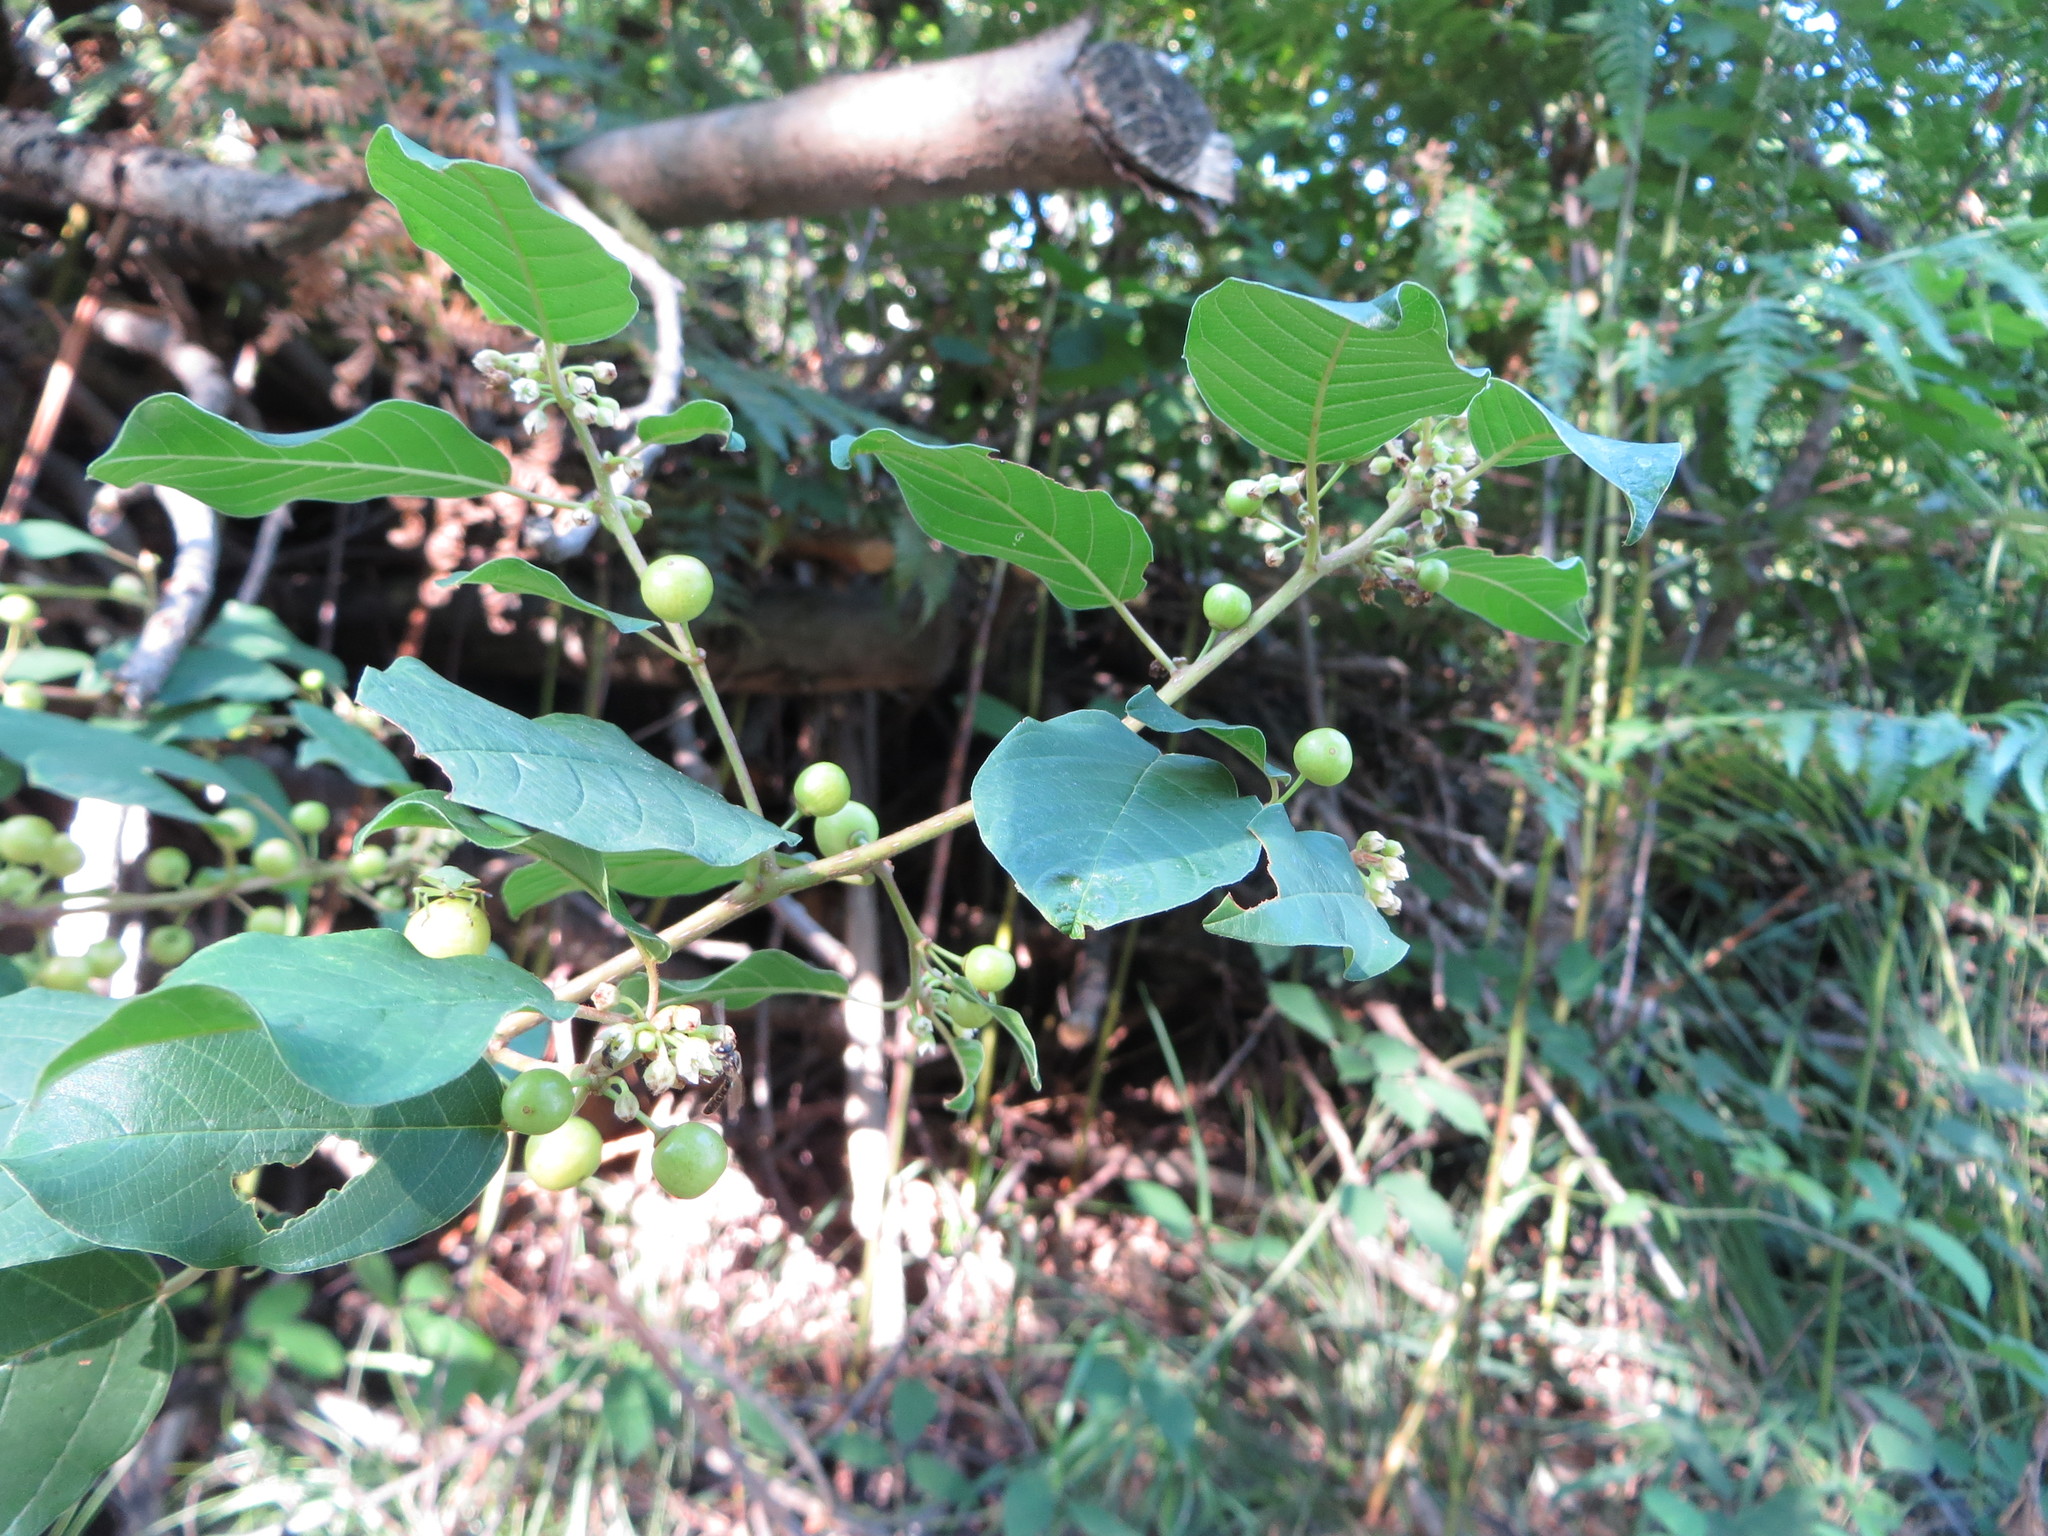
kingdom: Plantae
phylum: Tracheophyta
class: Magnoliopsida
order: Rosales
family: Rhamnaceae
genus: Frangula
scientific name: Frangula alnus
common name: Alder buckthorn
